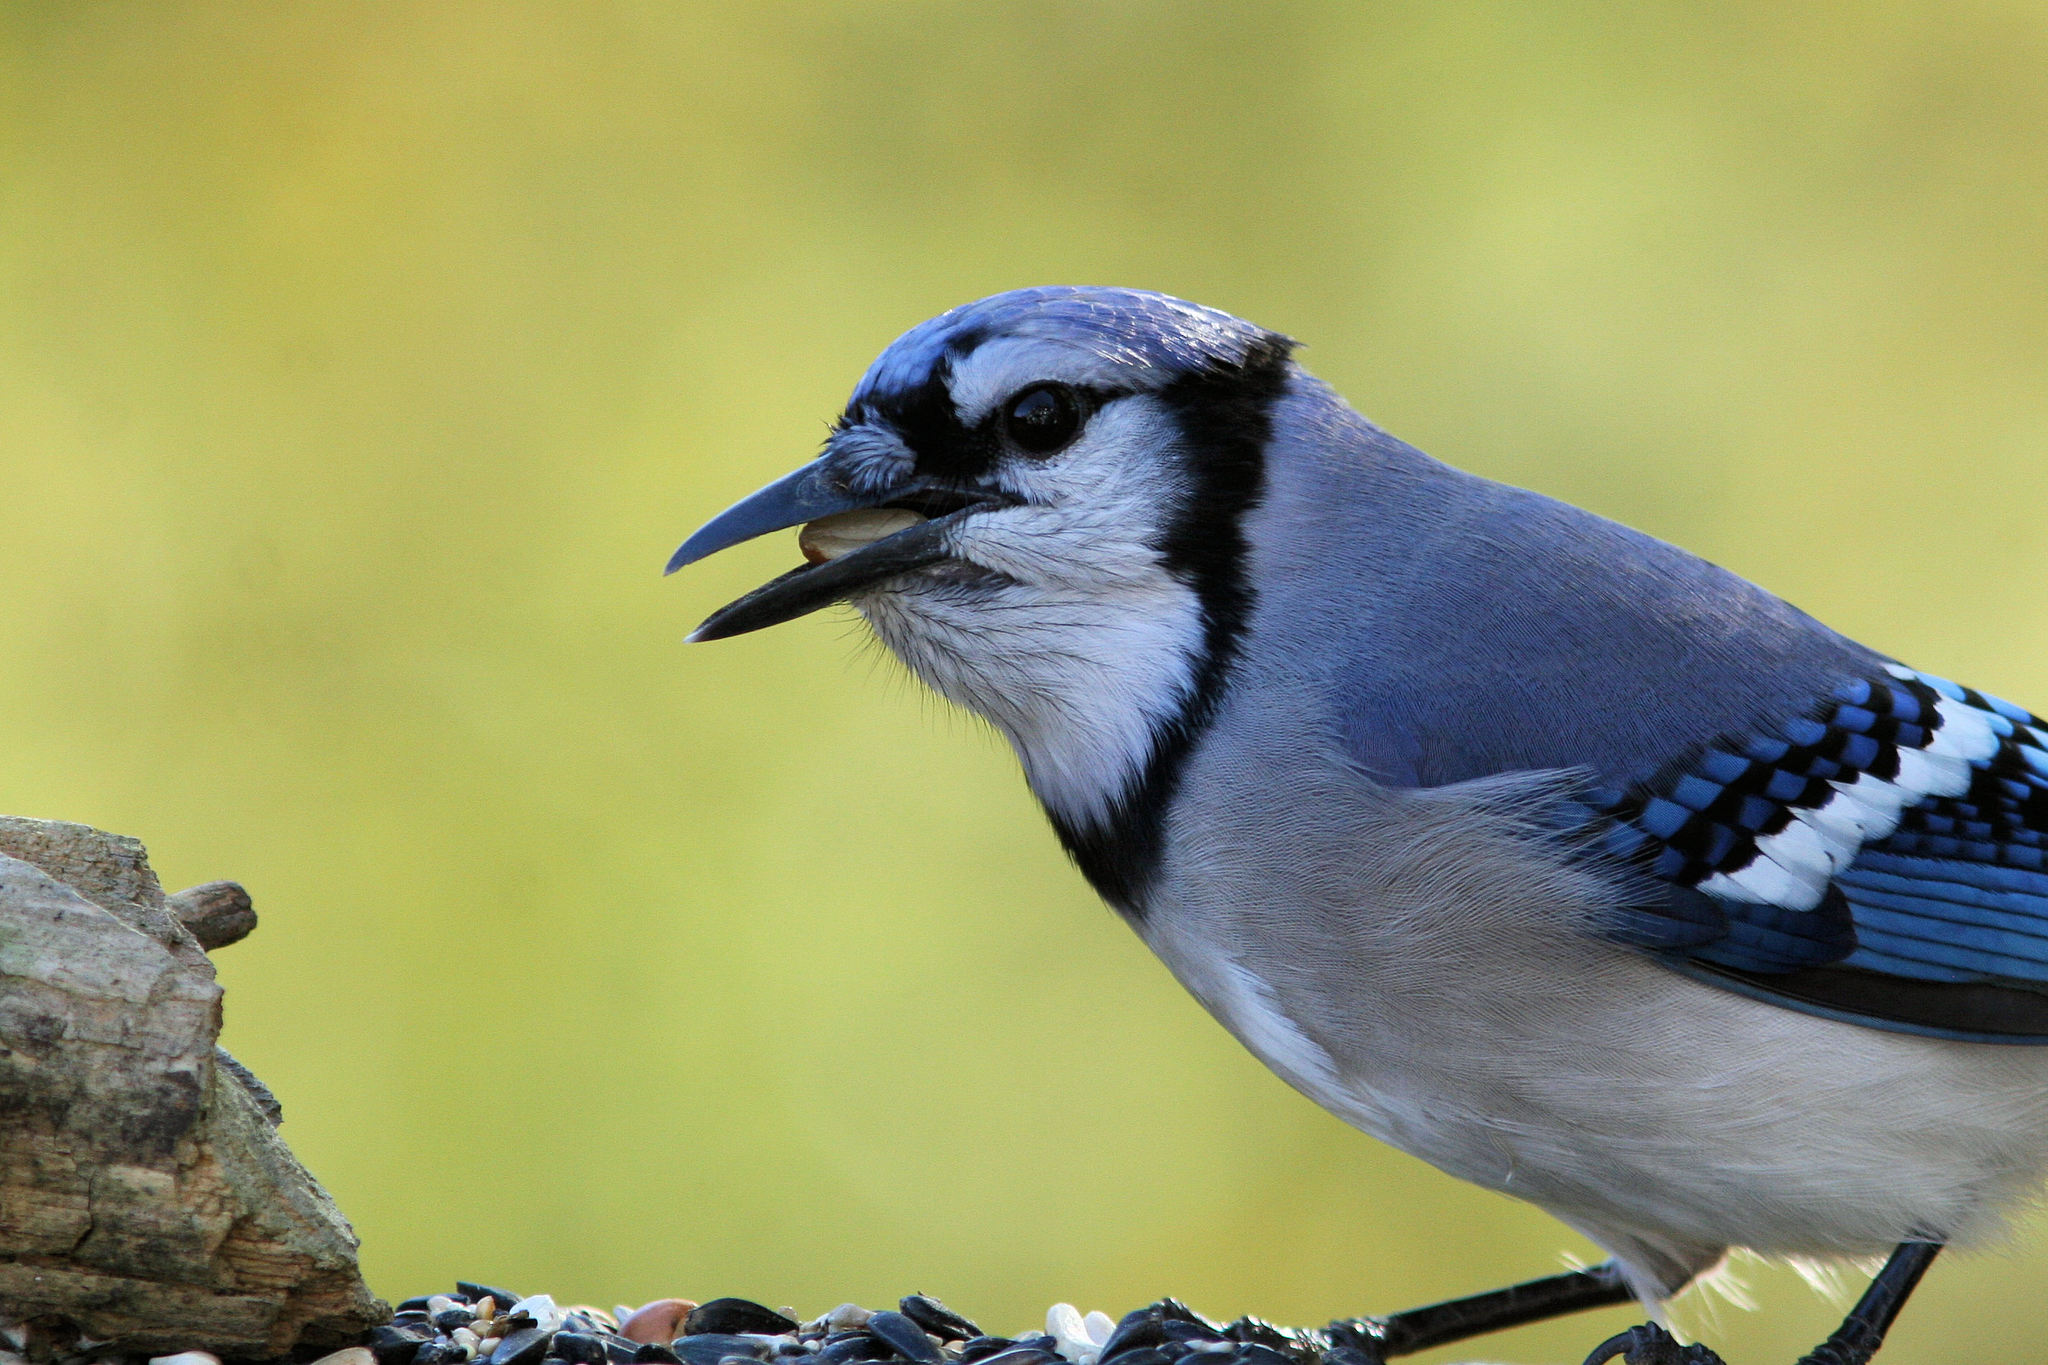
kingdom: Animalia
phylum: Chordata
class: Aves
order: Passeriformes
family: Corvidae
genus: Cyanocitta
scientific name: Cyanocitta cristata
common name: Blue jay
